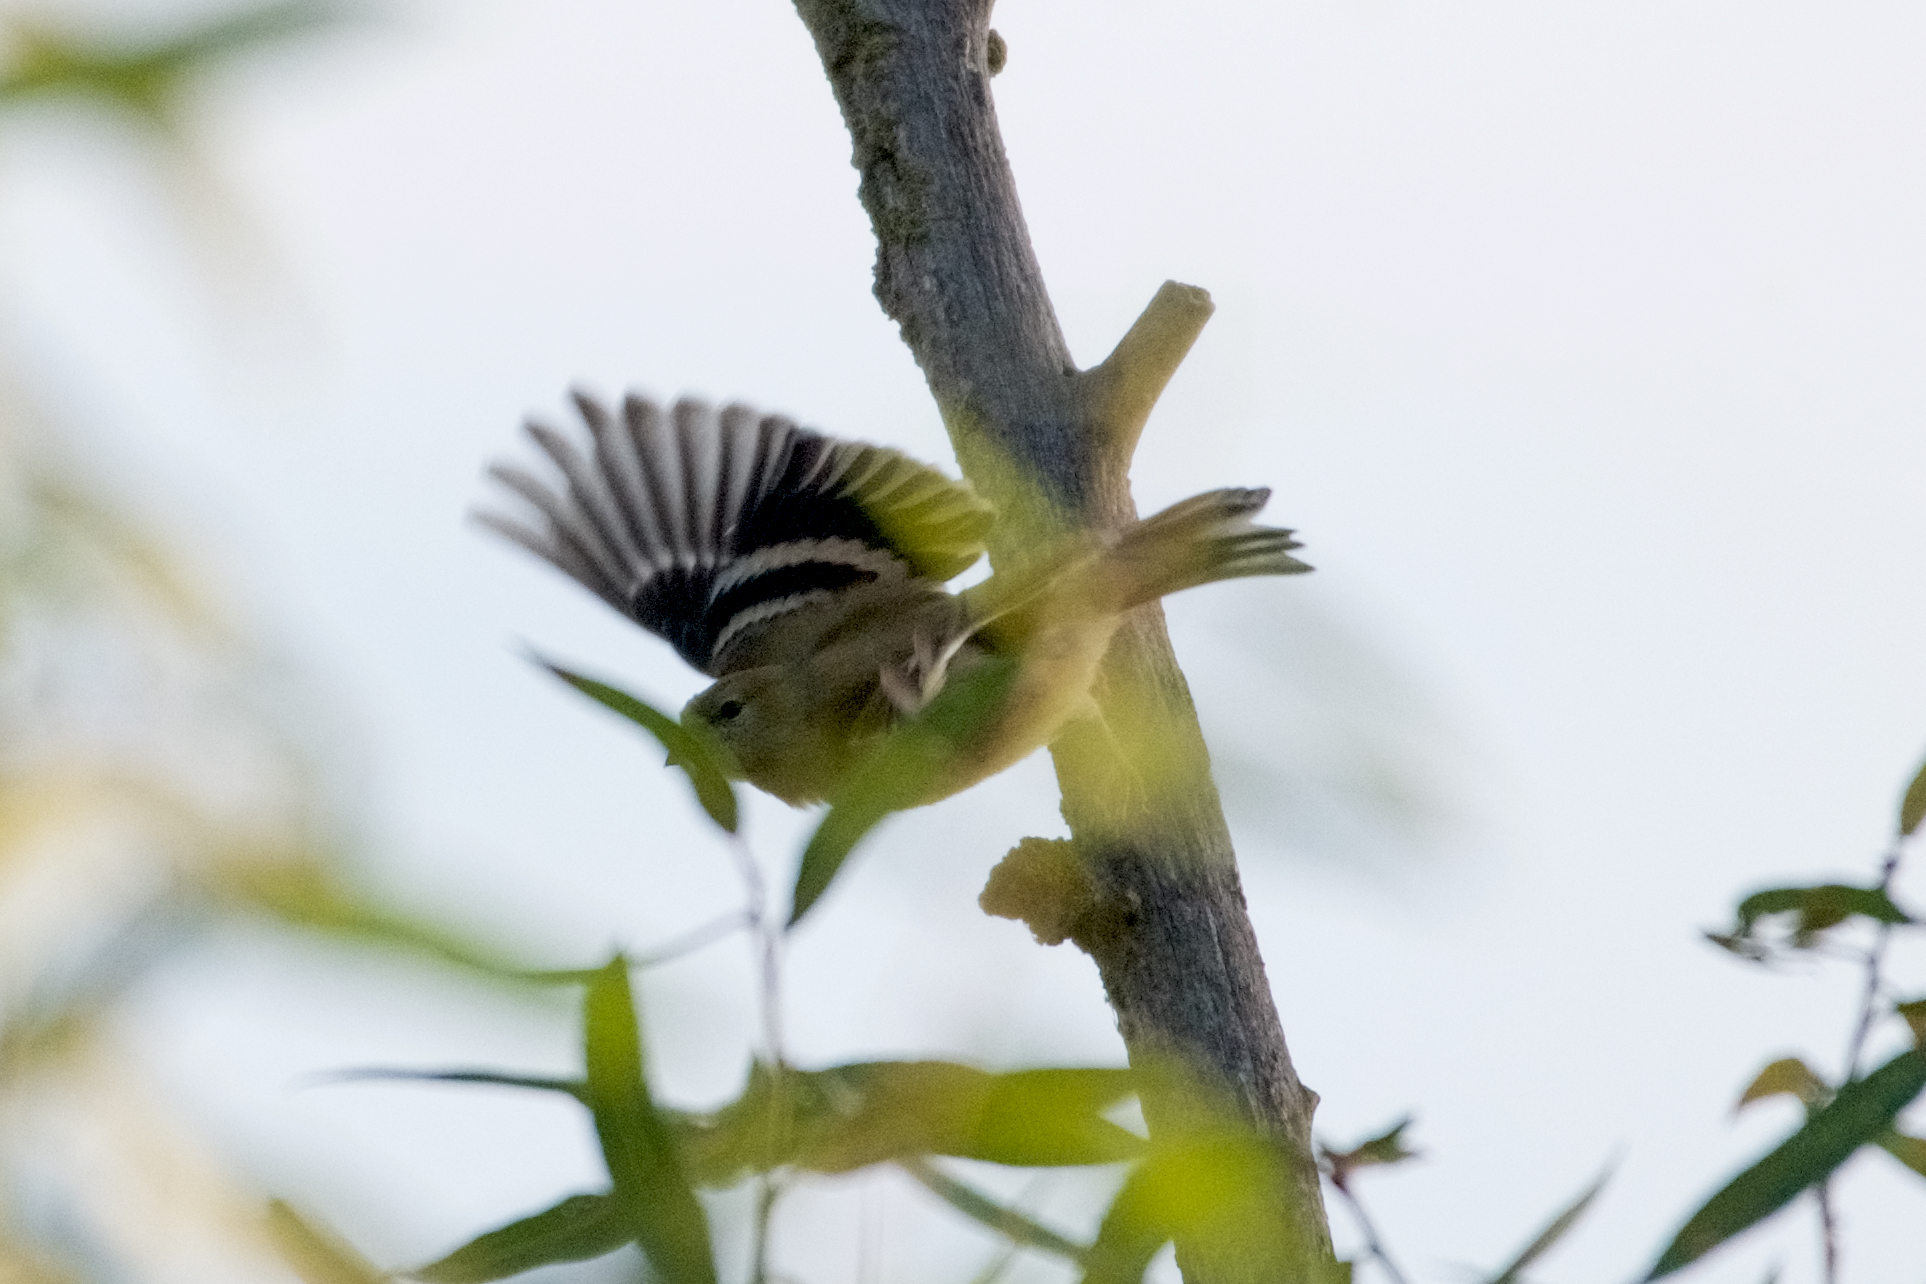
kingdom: Animalia
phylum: Chordata
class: Aves
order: Passeriformes
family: Fringillidae
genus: Spinus
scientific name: Spinus psaltria
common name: Lesser goldfinch
